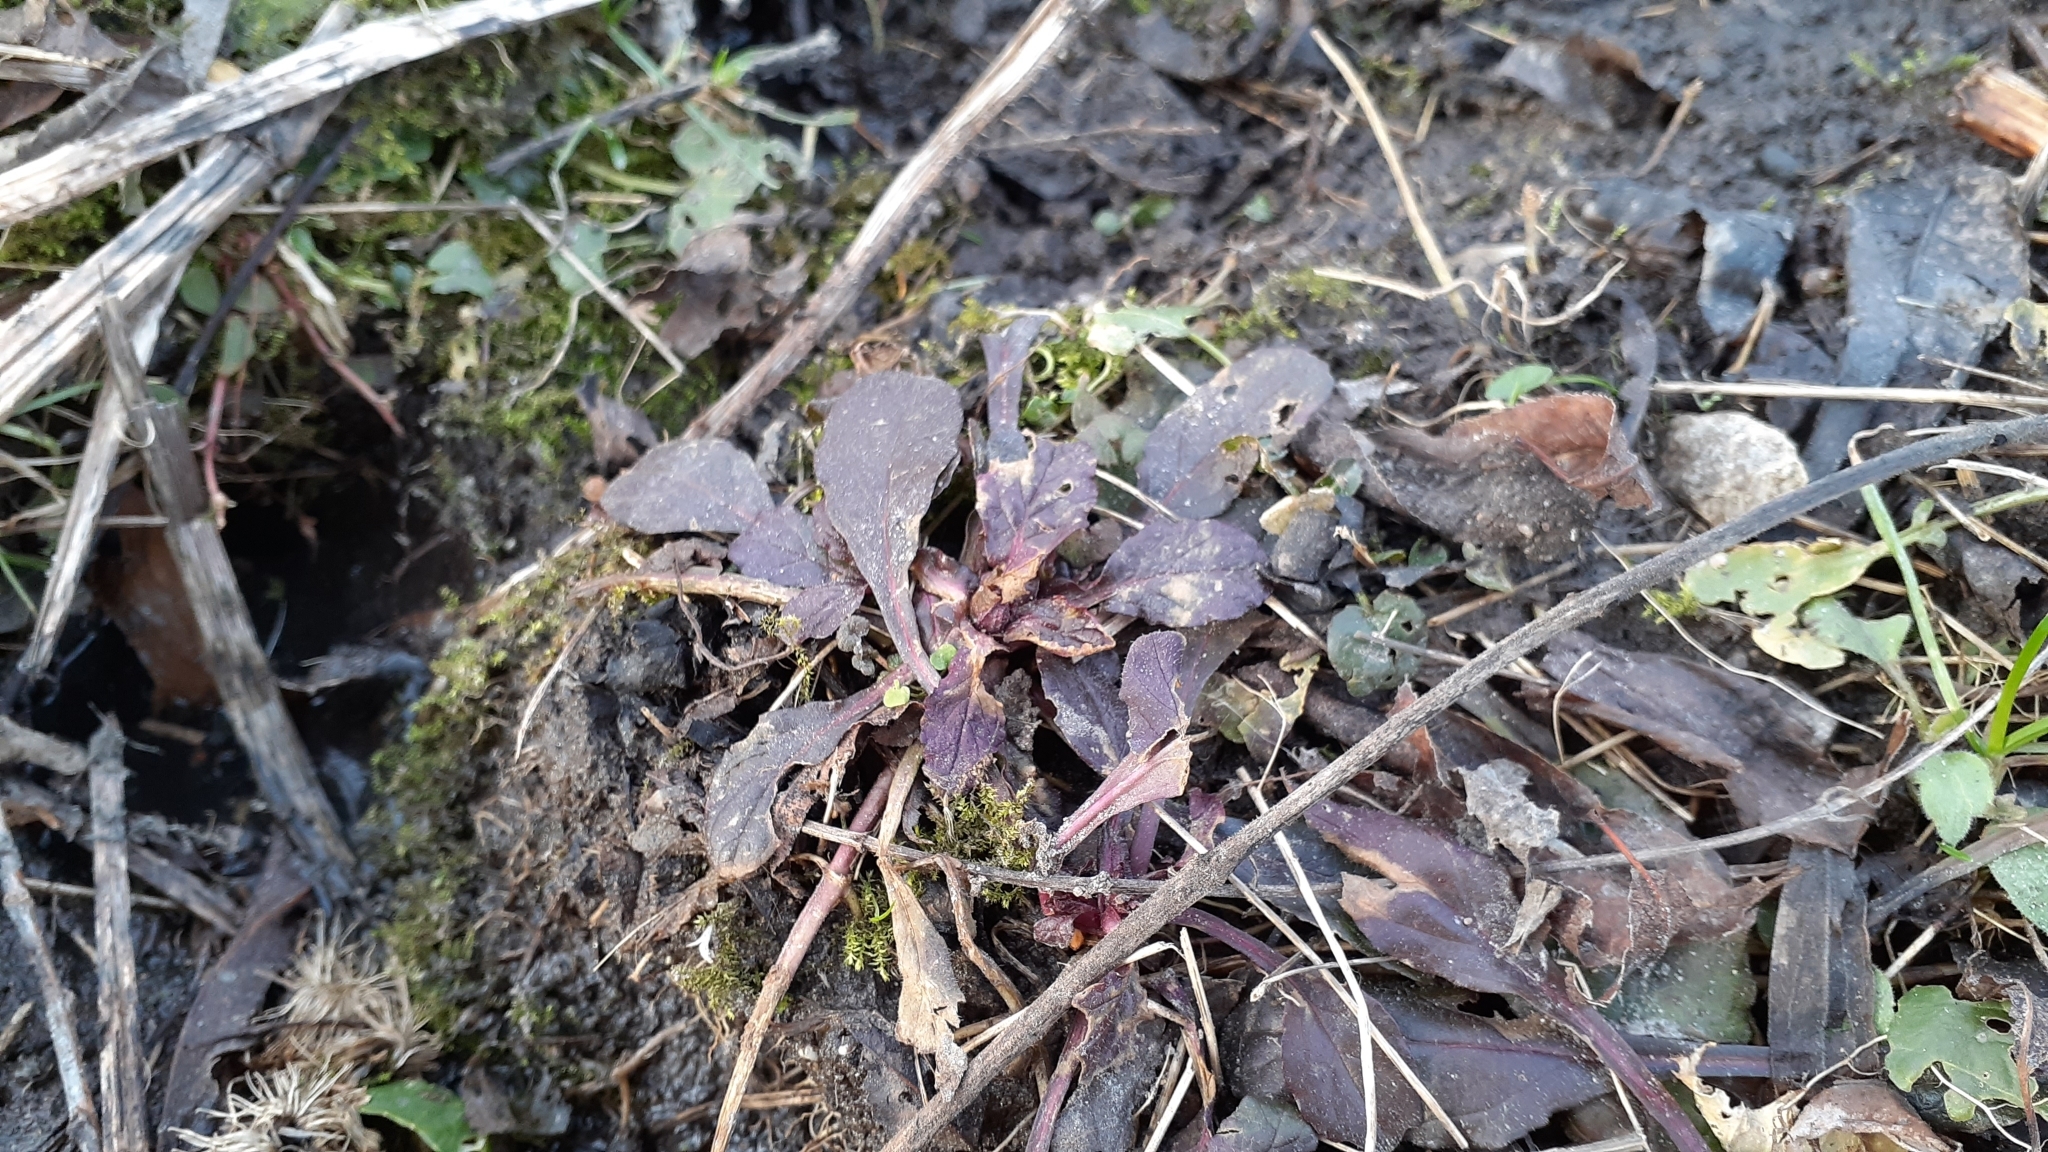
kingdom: Plantae
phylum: Tracheophyta
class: Magnoliopsida
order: Lamiales
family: Lamiaceae
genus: Ajuga
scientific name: Ajuga reptans
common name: Bugle
